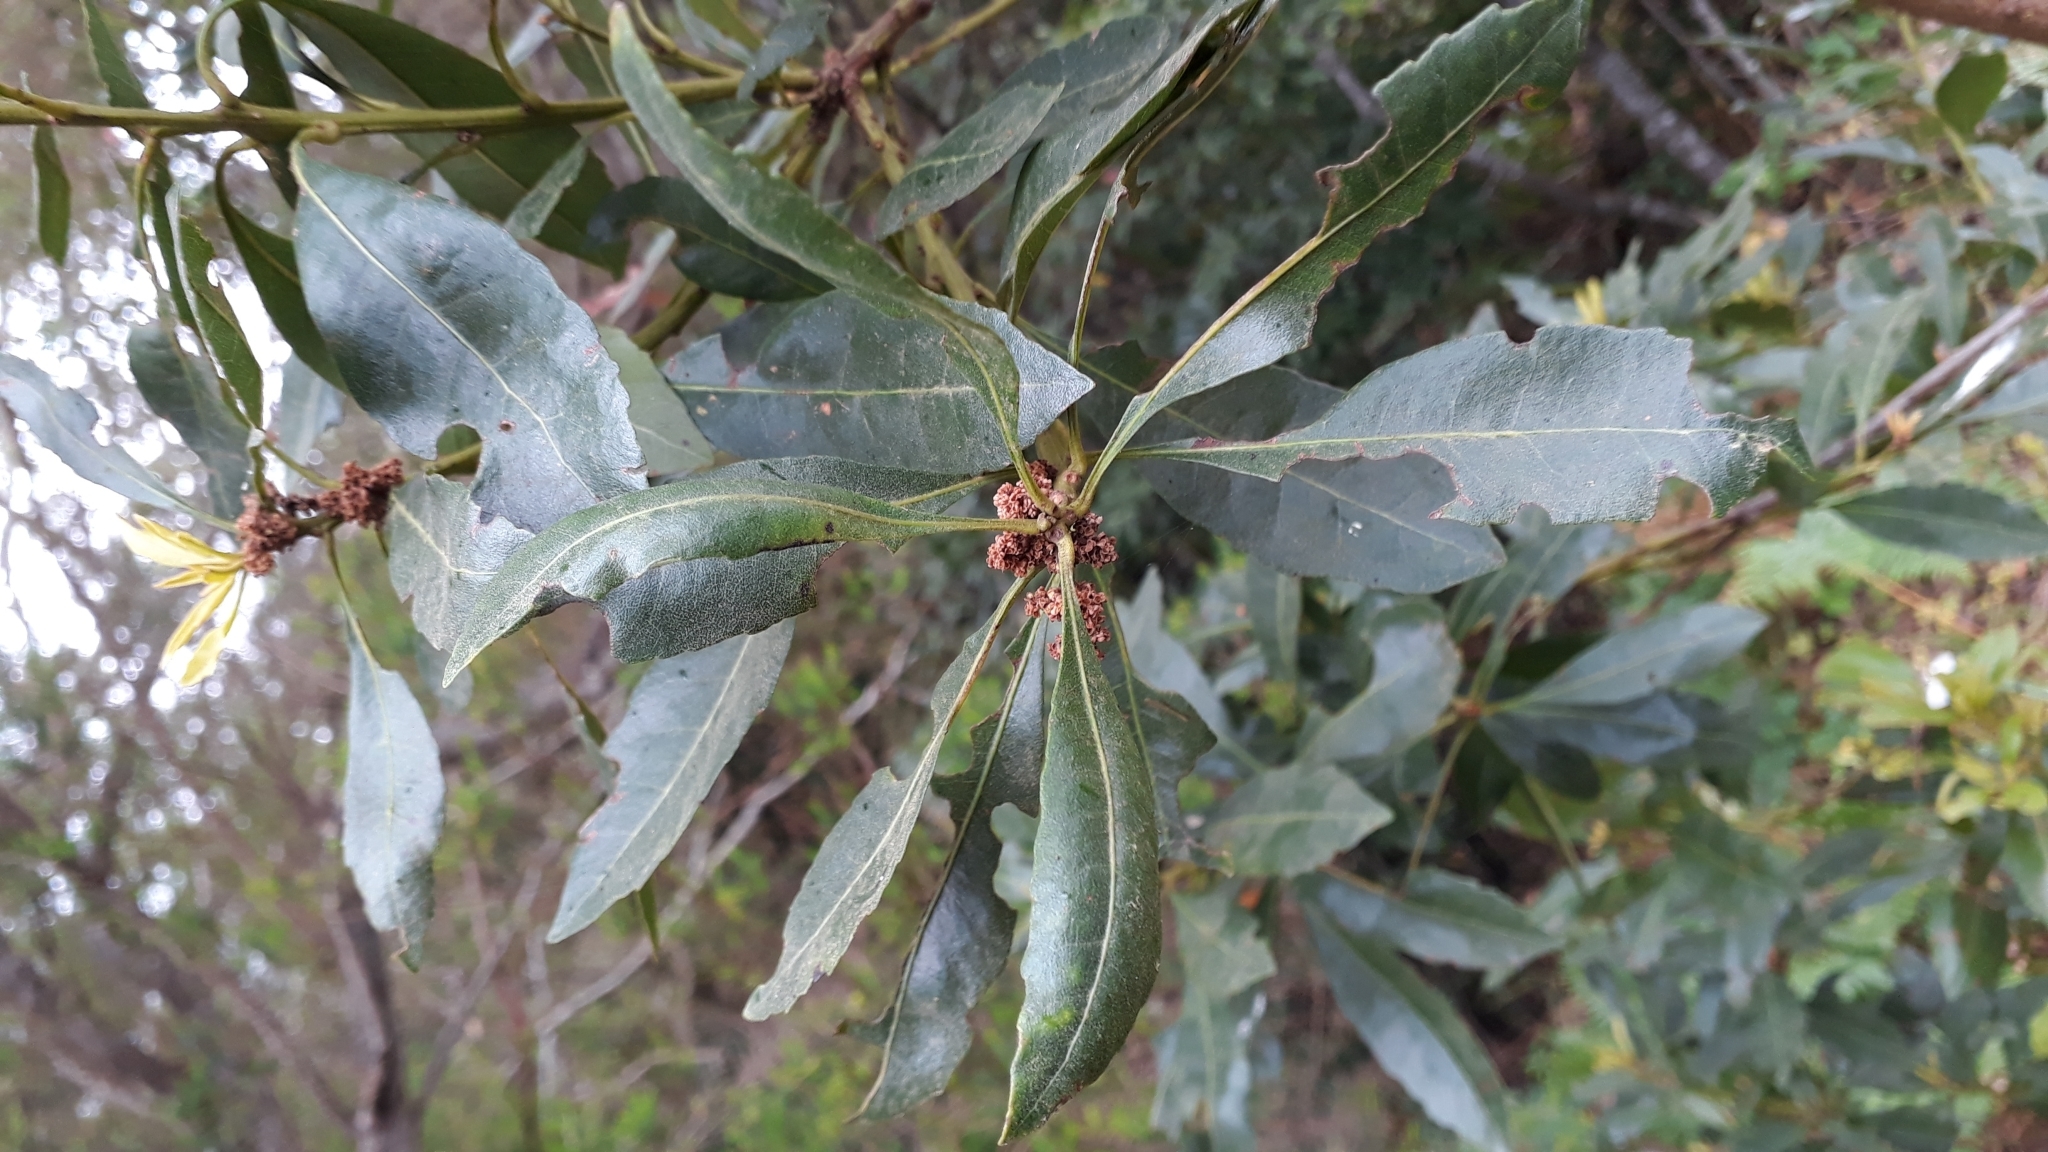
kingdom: Plantae
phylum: Tracheophyta
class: Magnoliopsida
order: Fagales
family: Myricaceae
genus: Morella
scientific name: Morella faya
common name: Firetree
